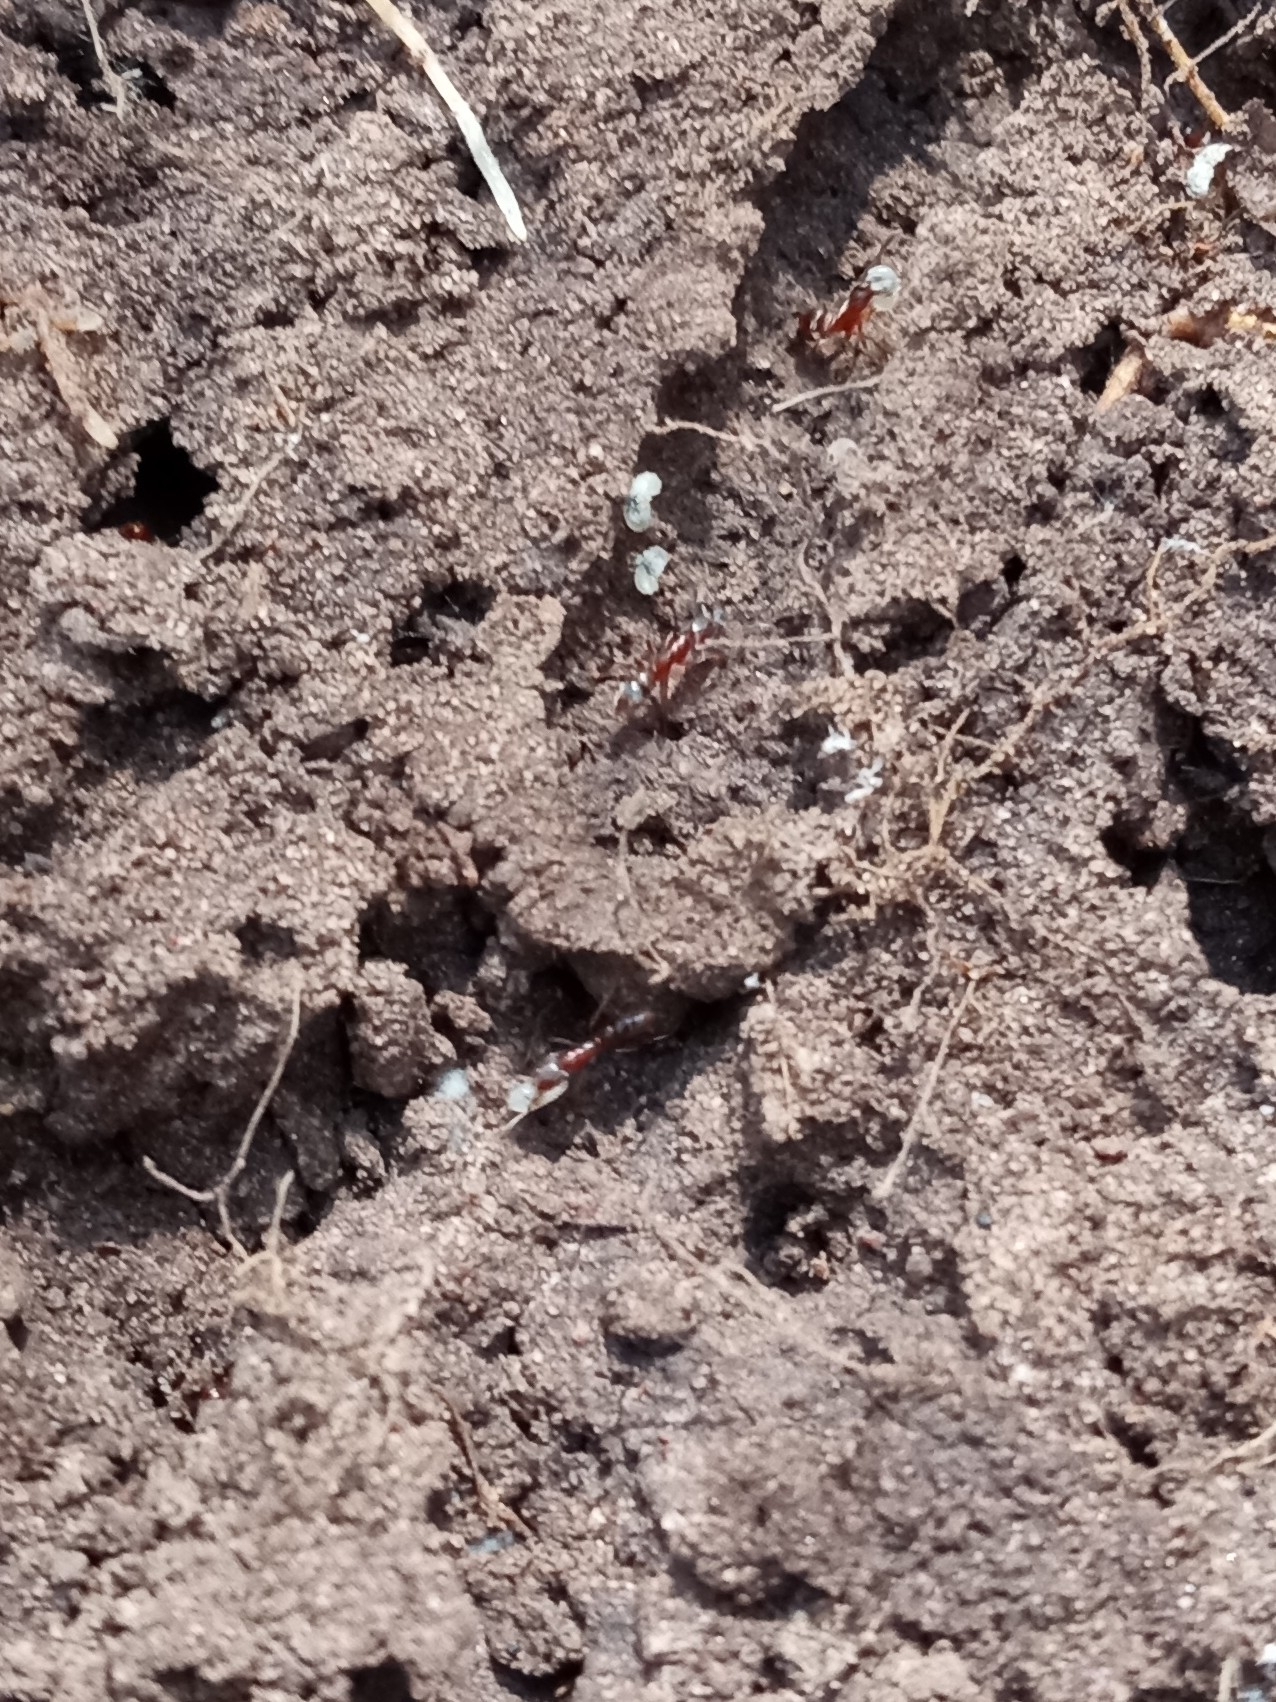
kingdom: Animalia
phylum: Arthropoda
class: Insecta
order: Hymenoptera
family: Formicidae
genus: Hypoponera
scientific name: Hypoponera opacior
